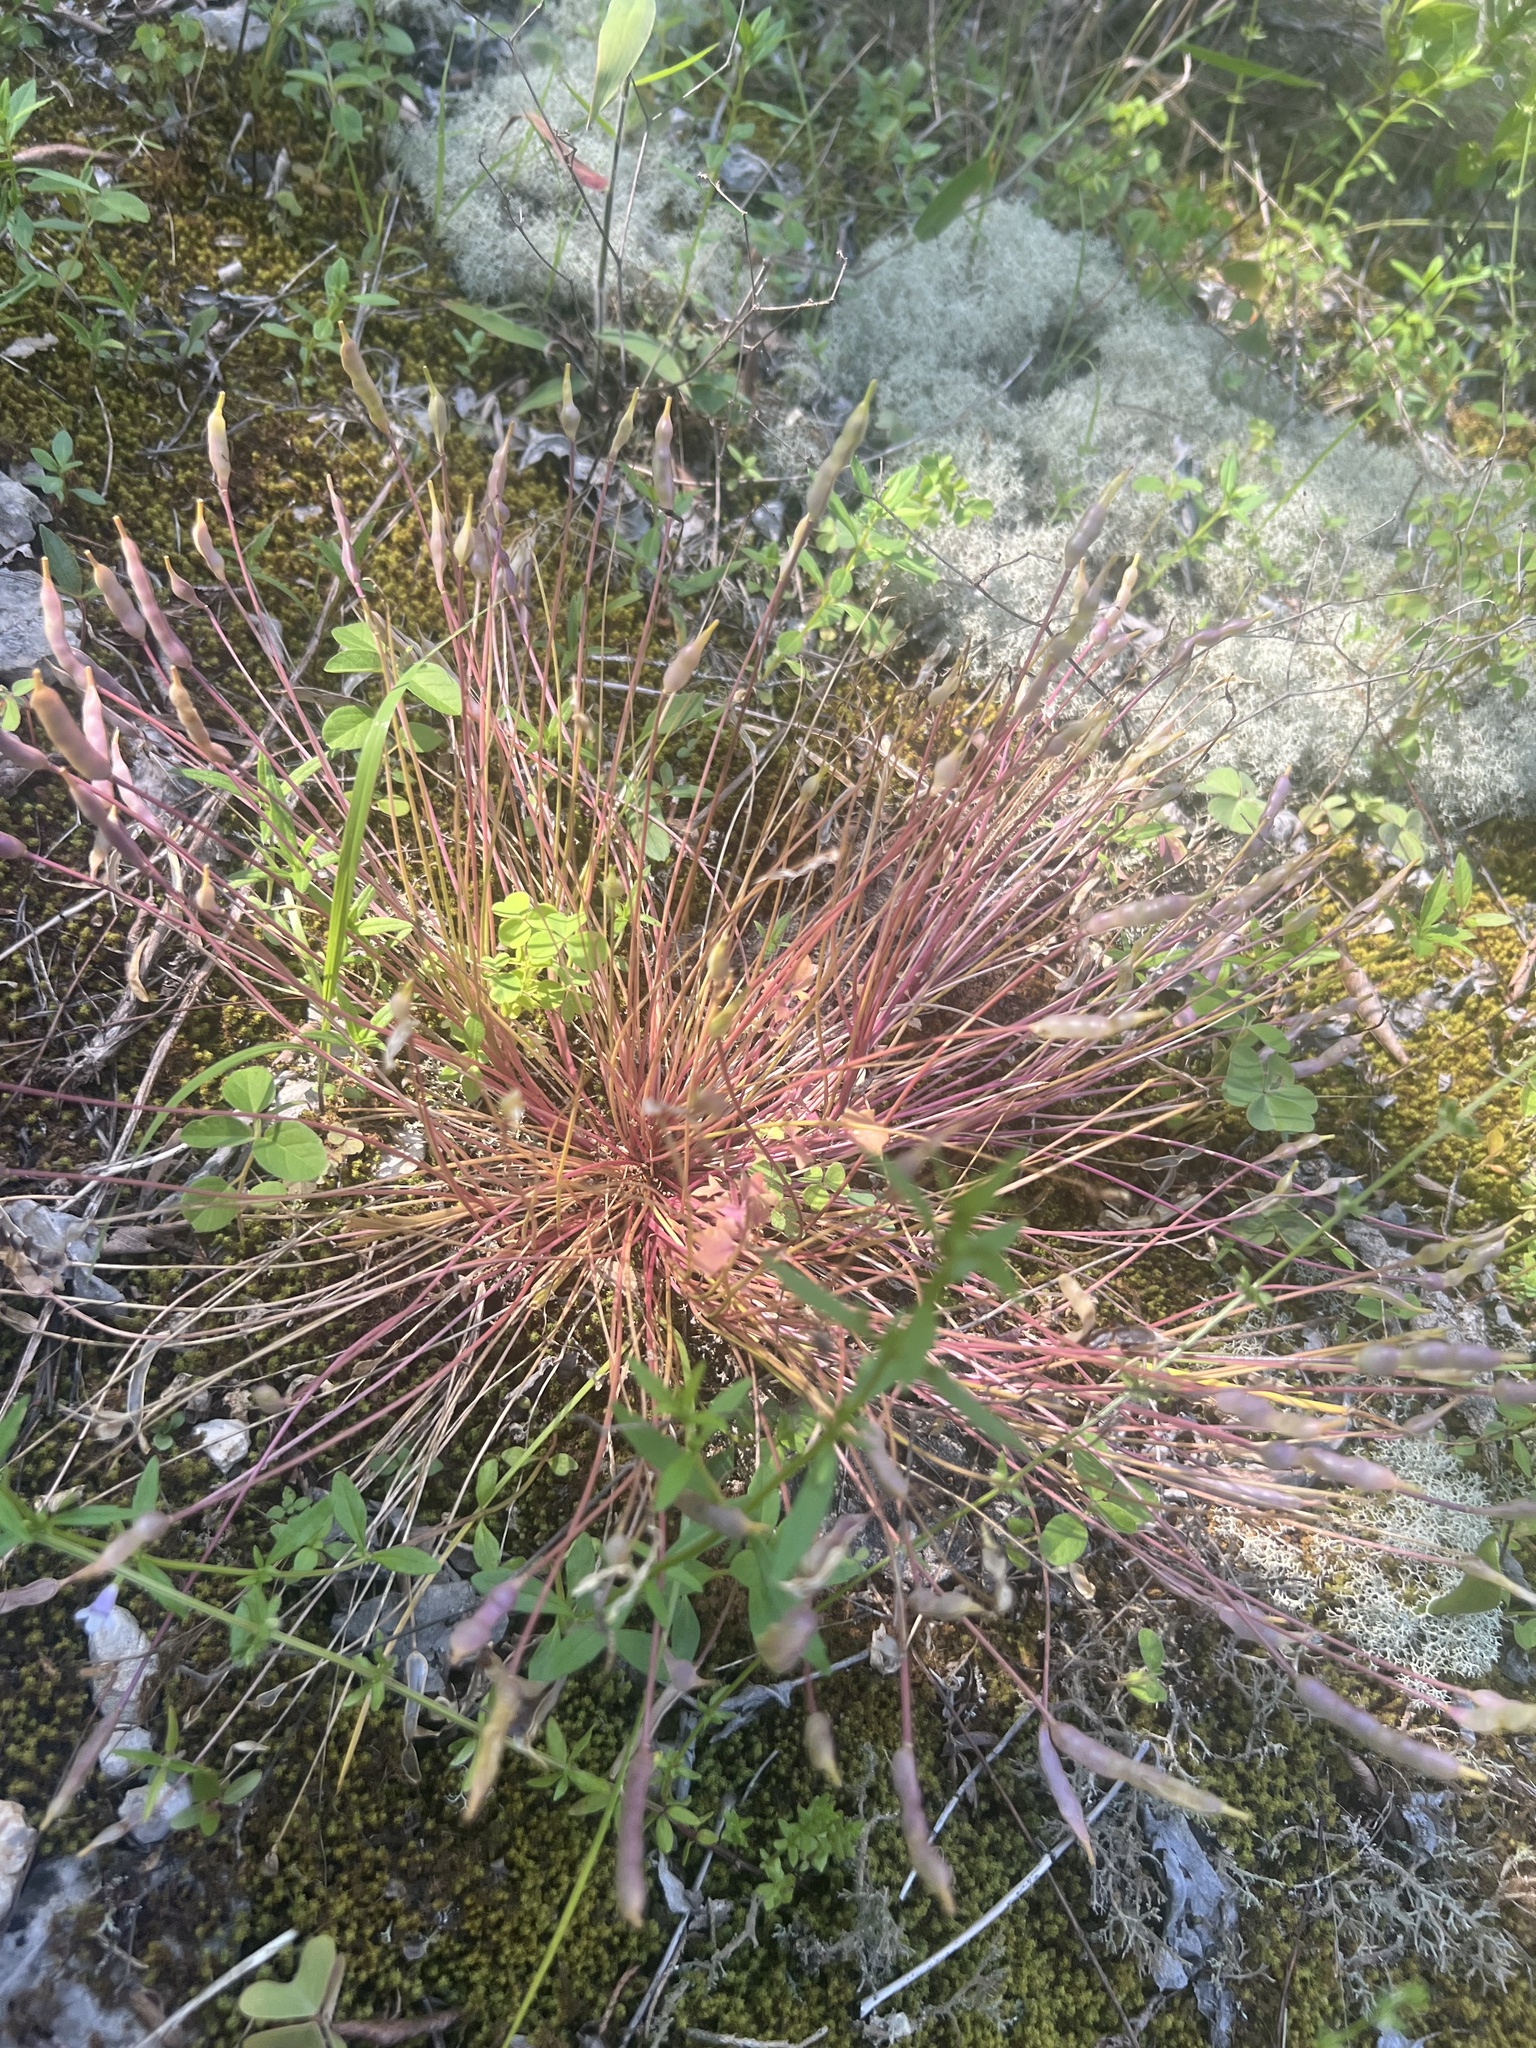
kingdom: Plantae
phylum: Tracheophyta
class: Magnoliopsida
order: Brassicales
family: Brassicaceae
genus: Leavenworthia
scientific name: Leavenworthia stylosa
